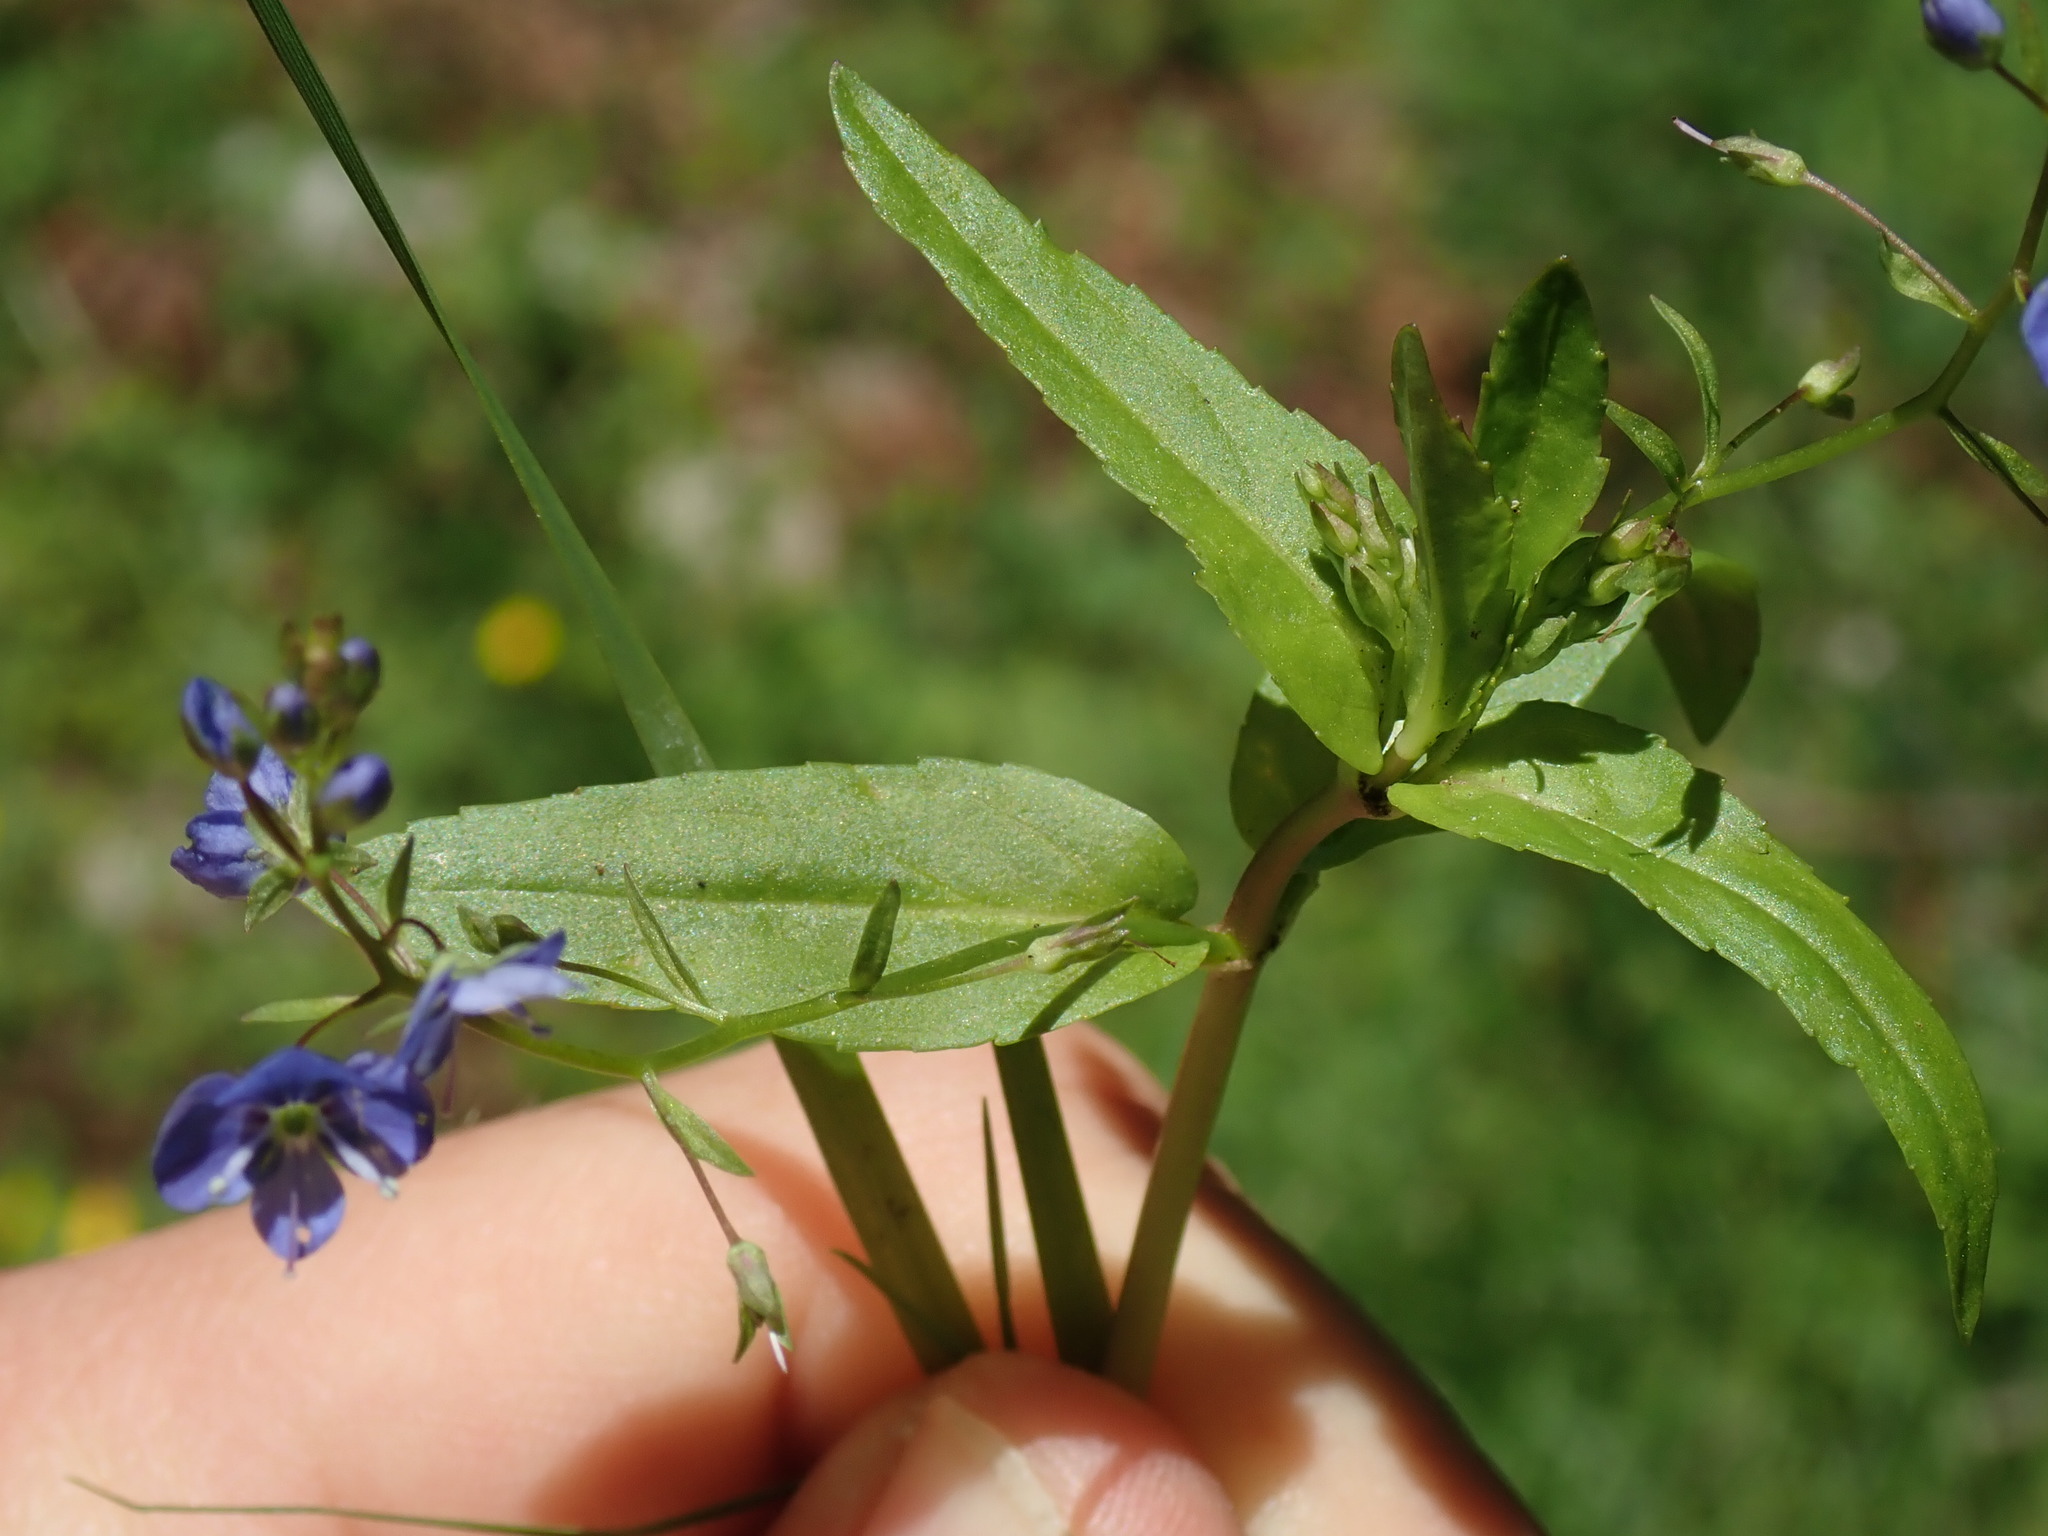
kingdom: Plantae
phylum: Tracheophyta
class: Magnoliopsida
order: Lamiales
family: Plantaginaceae
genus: Veronica
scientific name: Veronica americana
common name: American brooklime
